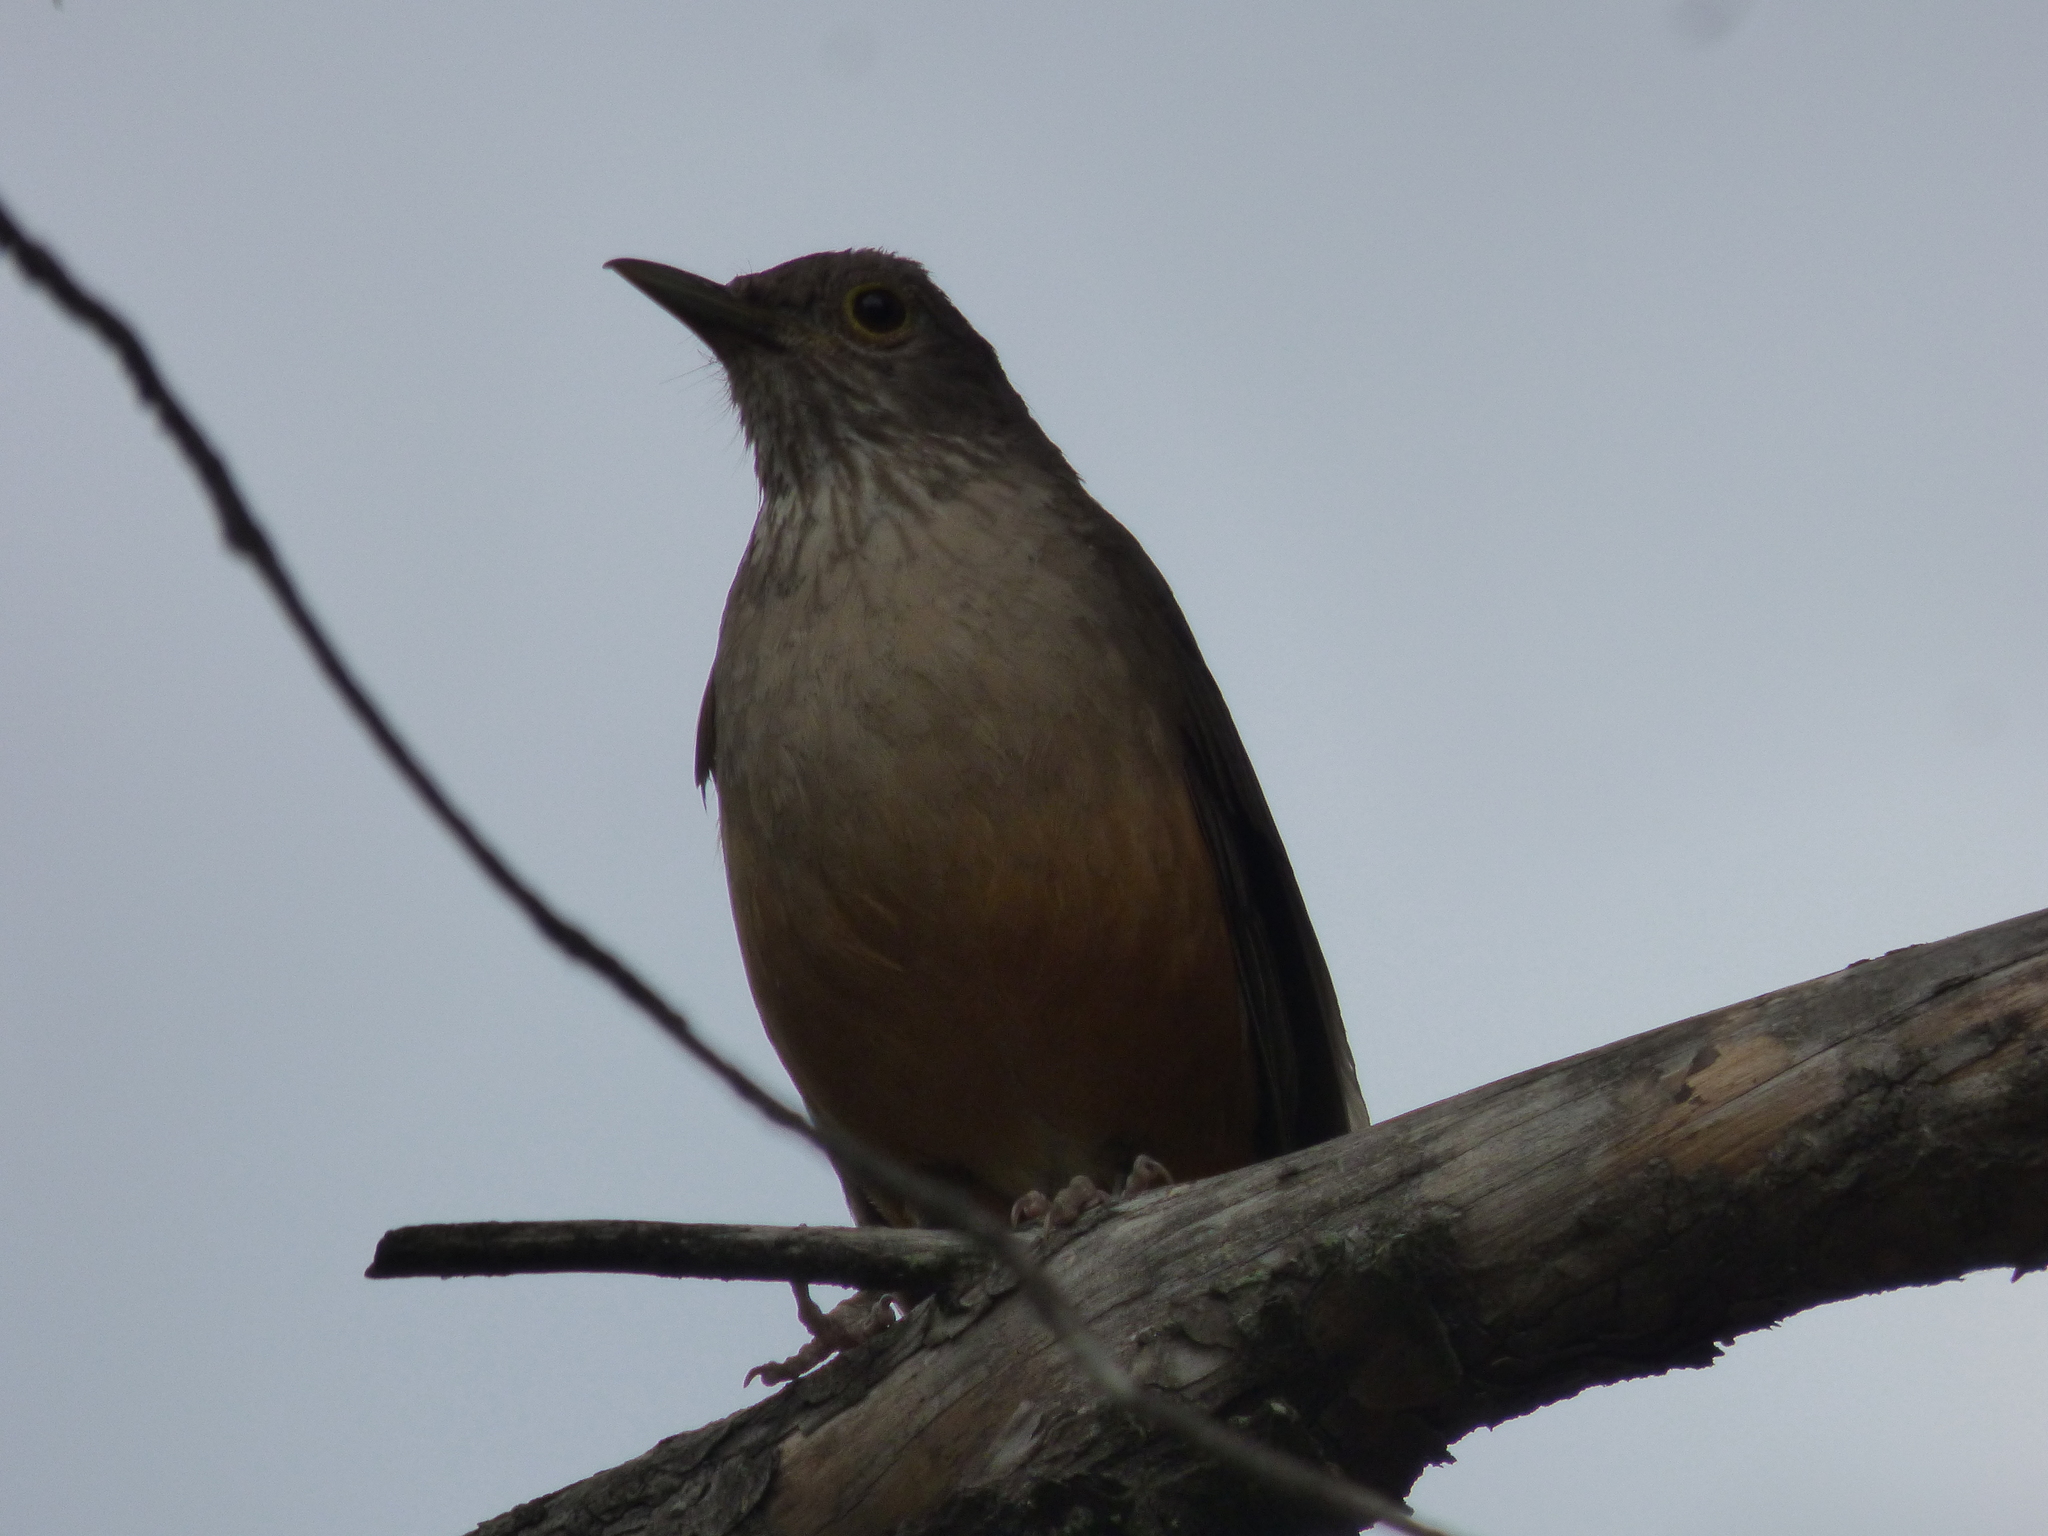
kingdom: Animalia
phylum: Chordata
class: Aves
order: Passeriformes
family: Turdidae
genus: Turdus
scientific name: Turdus rufiventris
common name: Rufous-bellied thrush
